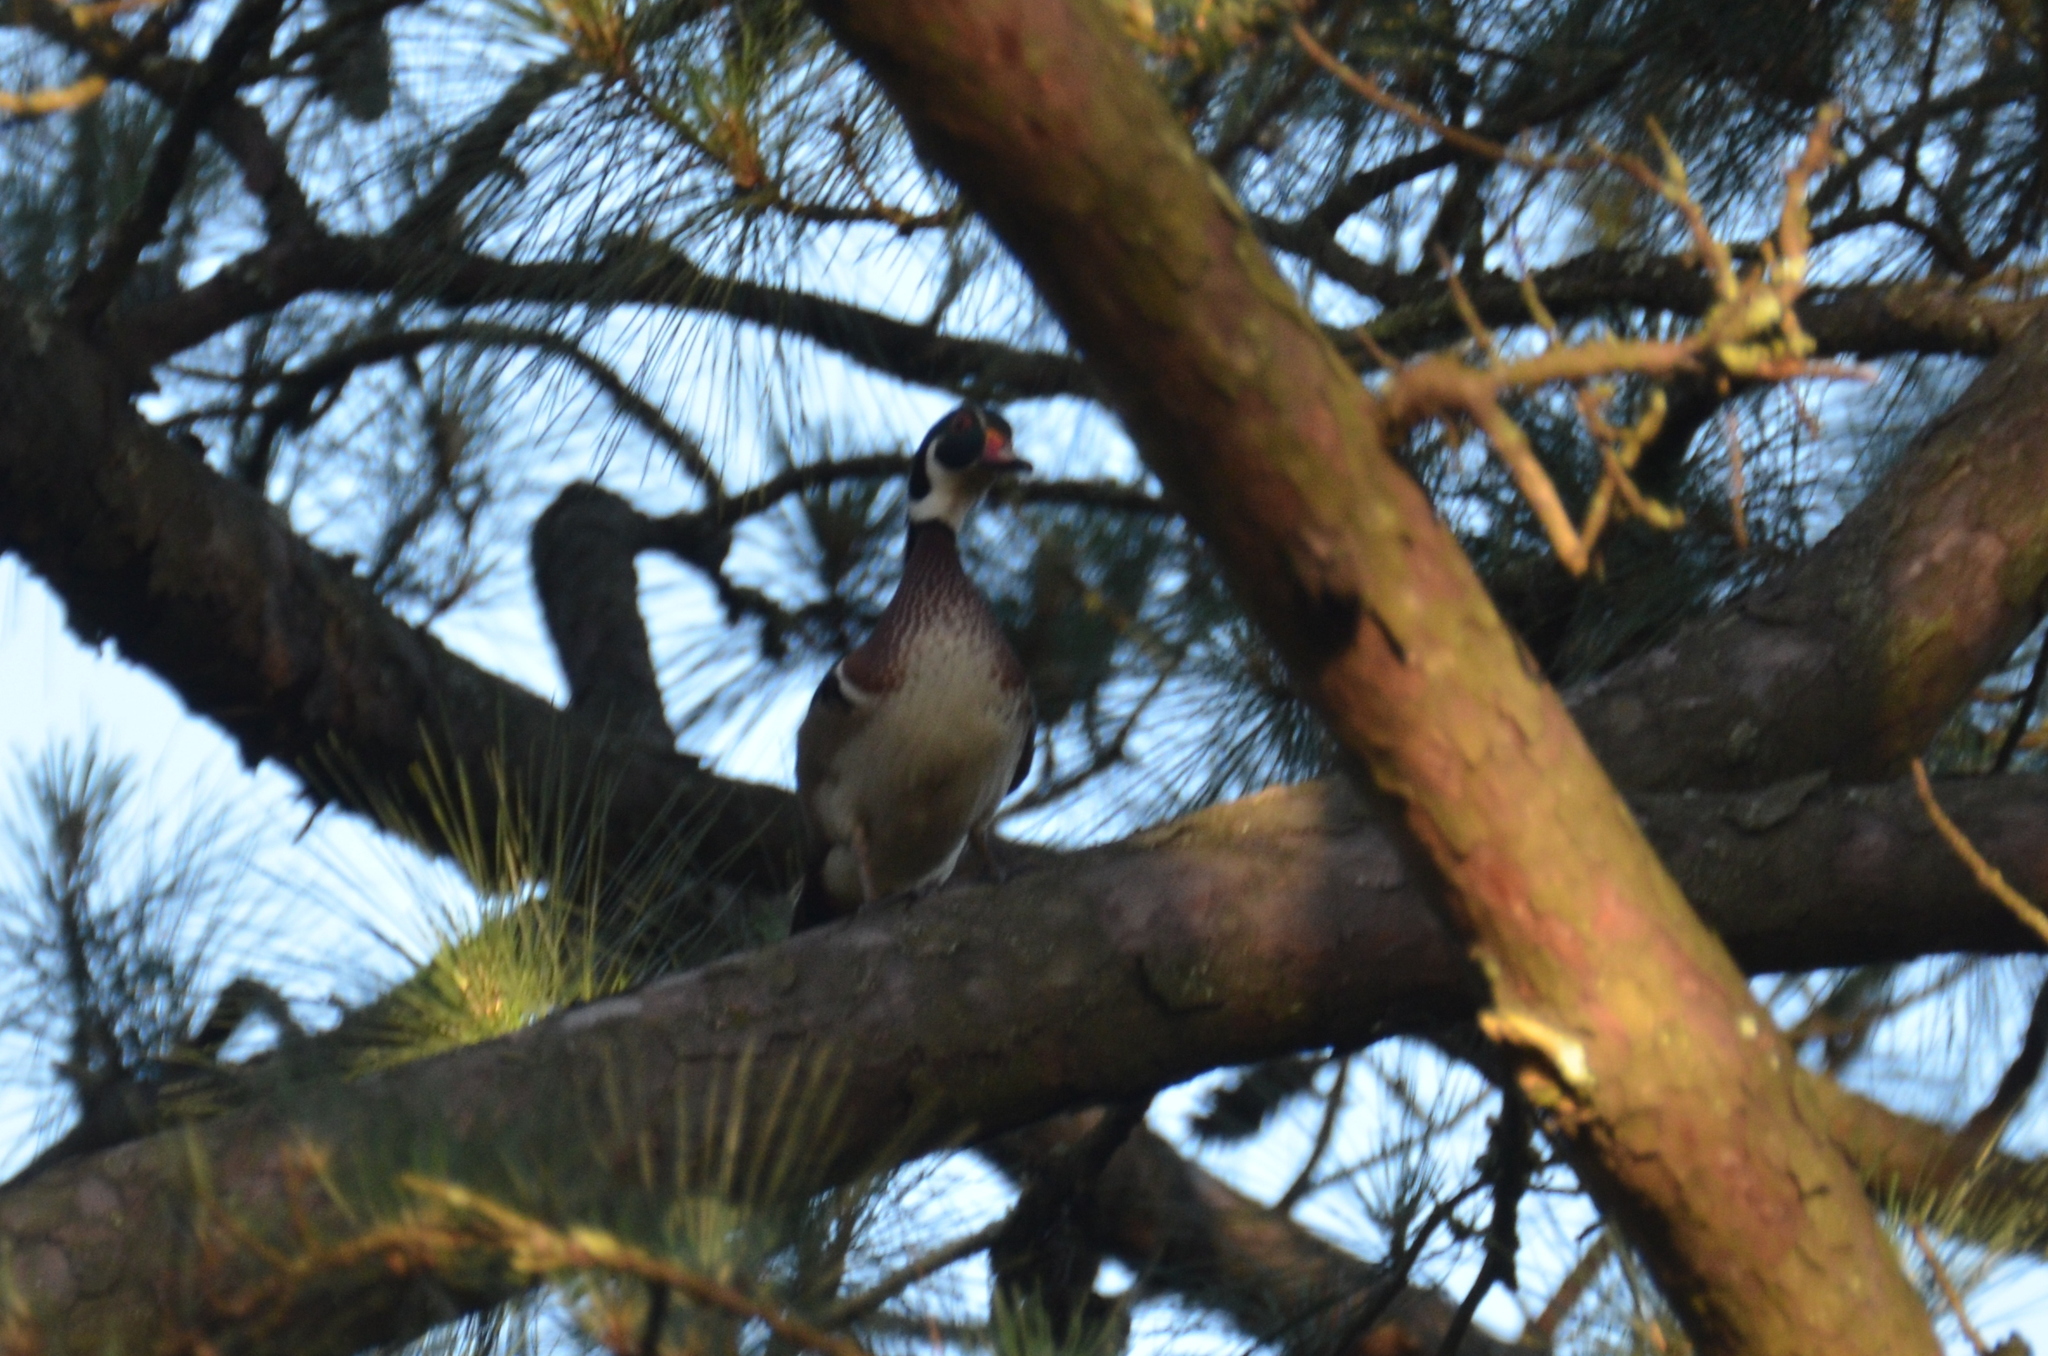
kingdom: Animalia
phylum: Chordata
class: Aves
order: Anseriformes
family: Anatidae
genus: Aix
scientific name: Aix sponsa
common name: Wood duck
